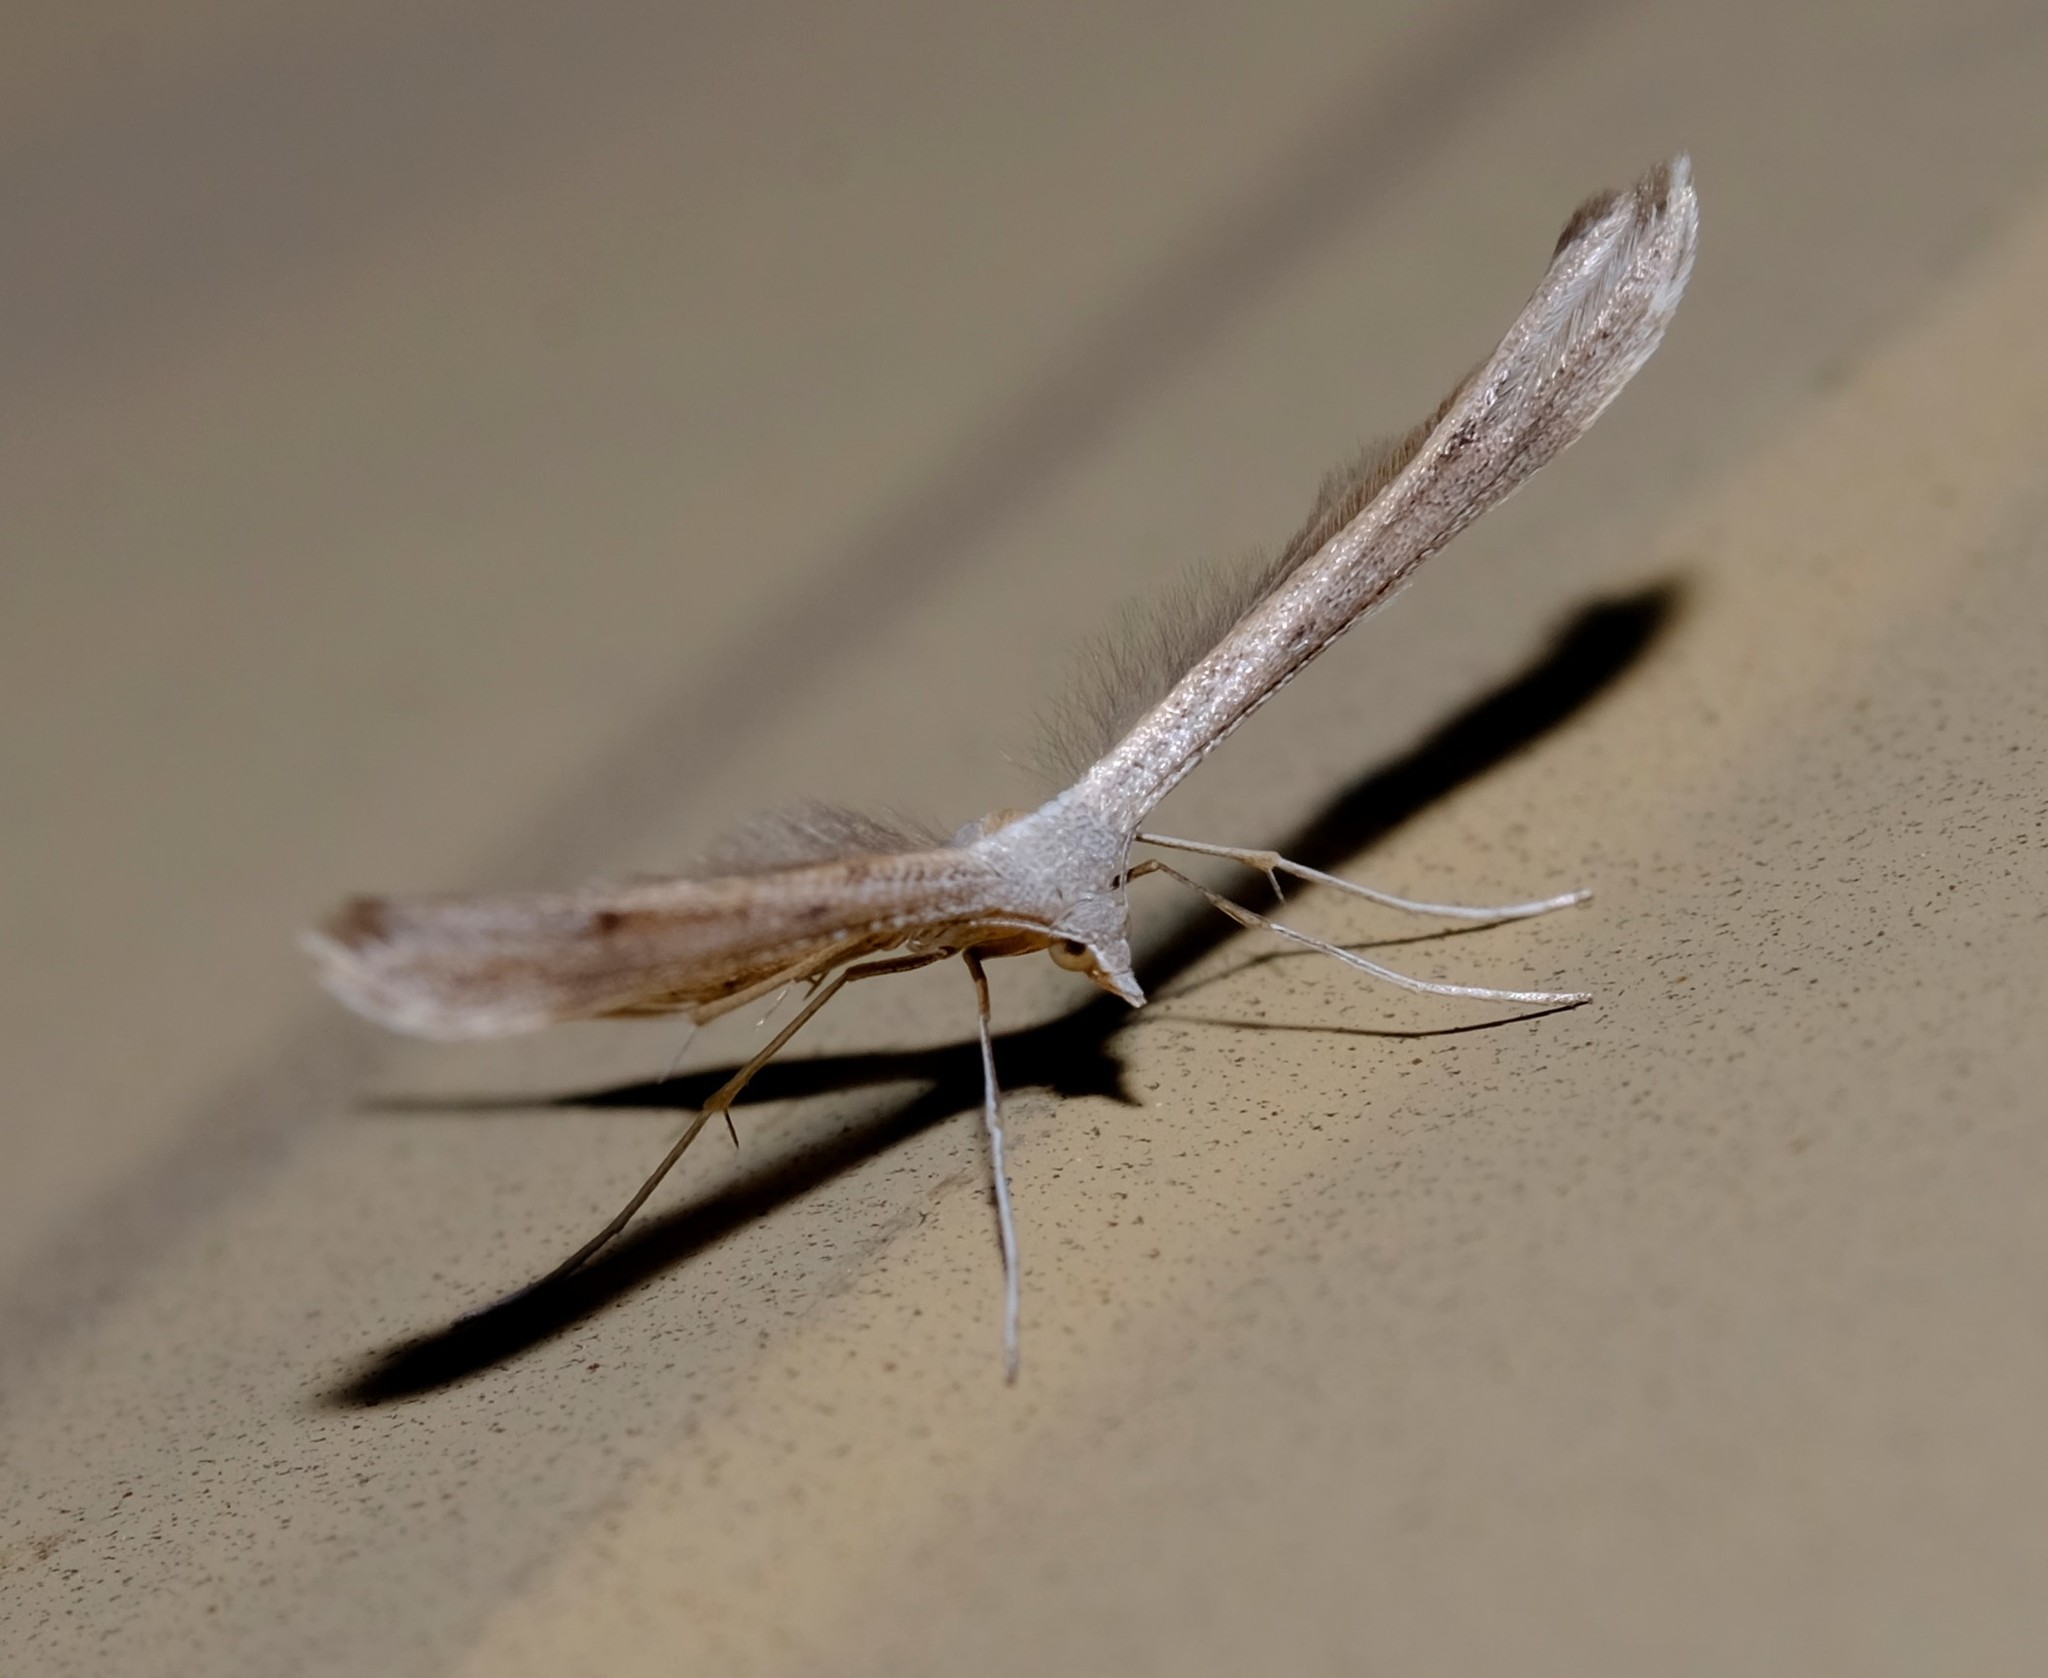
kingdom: Animalia
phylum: Arthropoda
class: Insecta
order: Lepidoptera
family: Pterophoridae
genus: Stenoptilia
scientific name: Stenoptilia zophodactylus
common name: Dowdy plume
